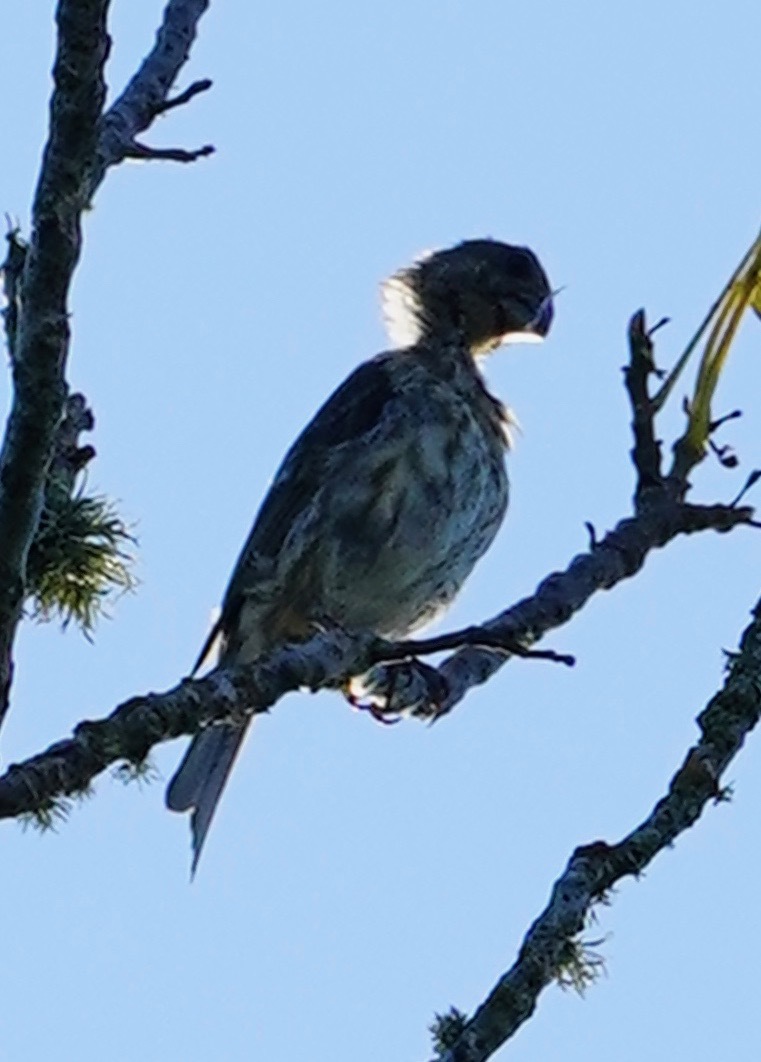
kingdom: Animalia
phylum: Chordata
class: Aves
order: Passeriformes
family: Fringillidae
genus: Haemorhous
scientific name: Haemorhous purpureus
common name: Purple finch
